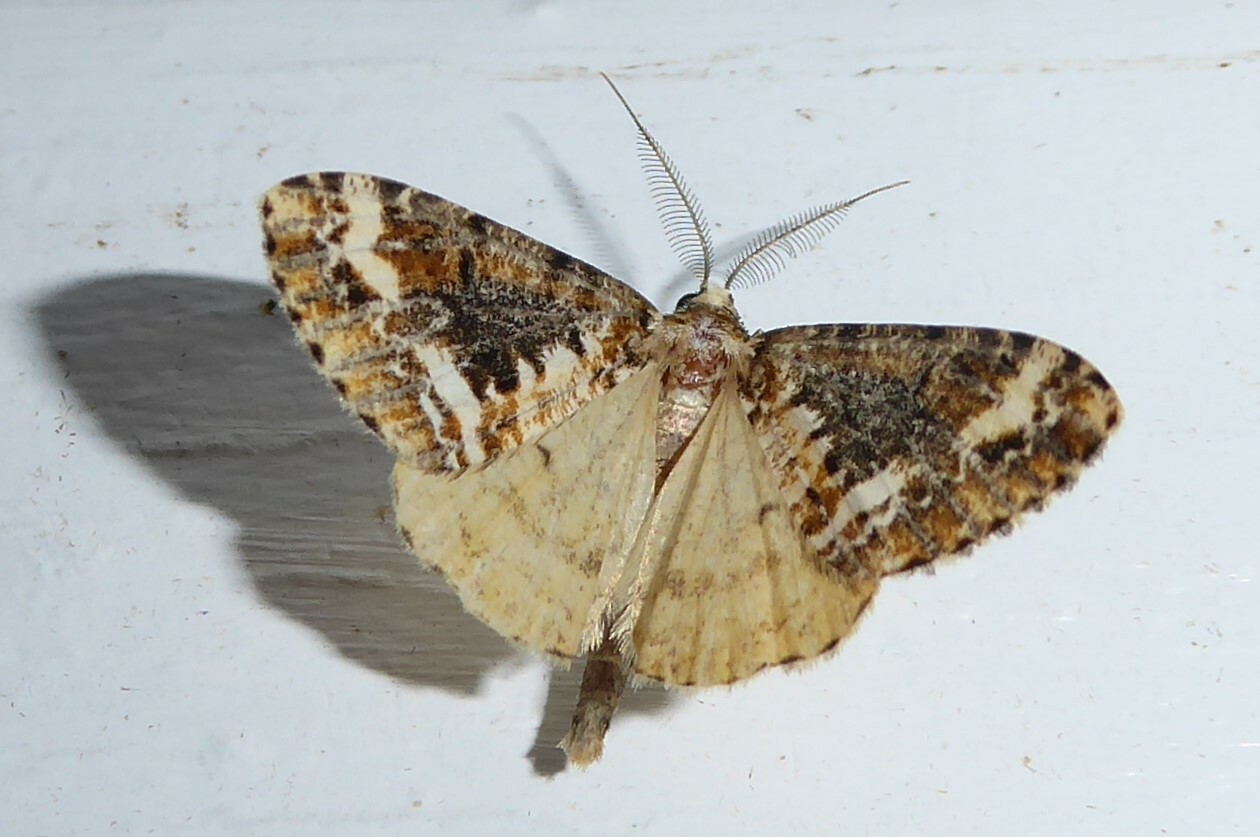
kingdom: Animalia
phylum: Arthropoda
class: Insecta
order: Lepidoptera
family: Geometridae
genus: Pseudocoremia
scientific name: Pseudocoremia leucelaea
